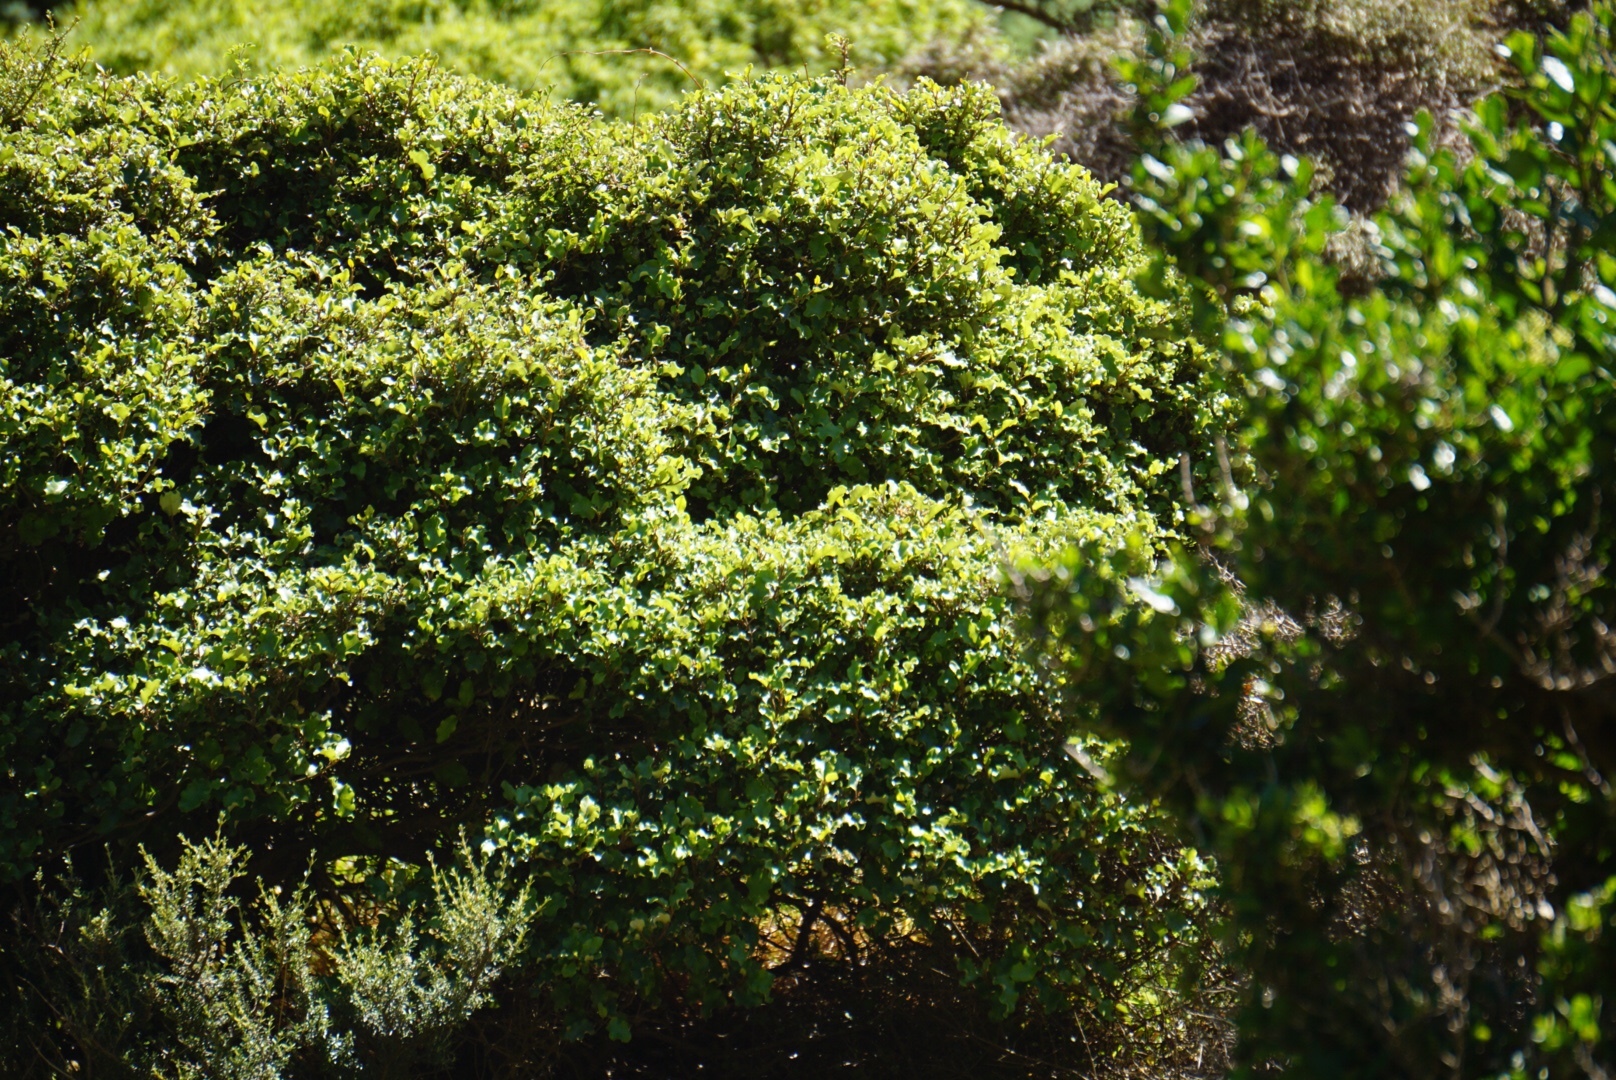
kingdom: Plantae
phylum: Tracheophyta
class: Magnoliopsida
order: Asterales
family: Asteraceae
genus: Olearia
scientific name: Olearia paniculata
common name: Akiraho
